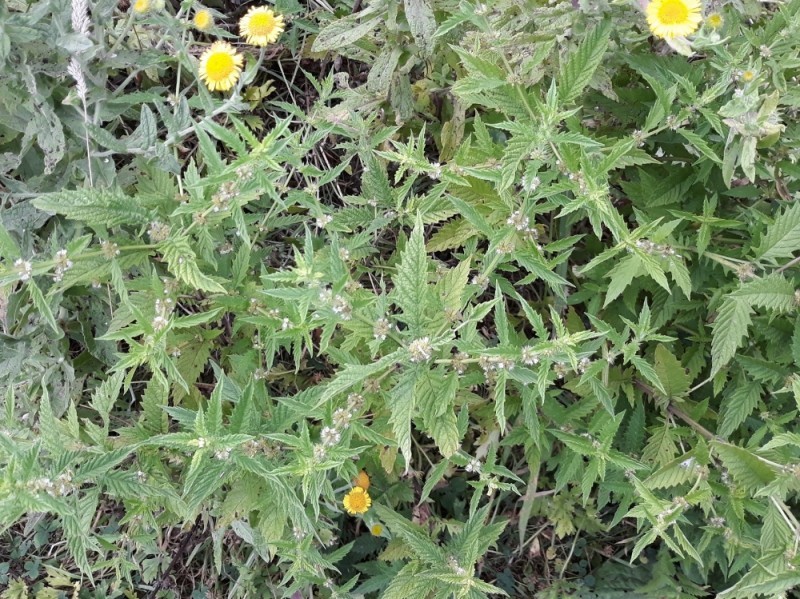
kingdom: Plantae
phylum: Tracheophyta
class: Magnoliopsida
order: Lamiales
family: Lamiaceae
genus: Lycopus
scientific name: Lycopus europaeus
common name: European bugleweed
